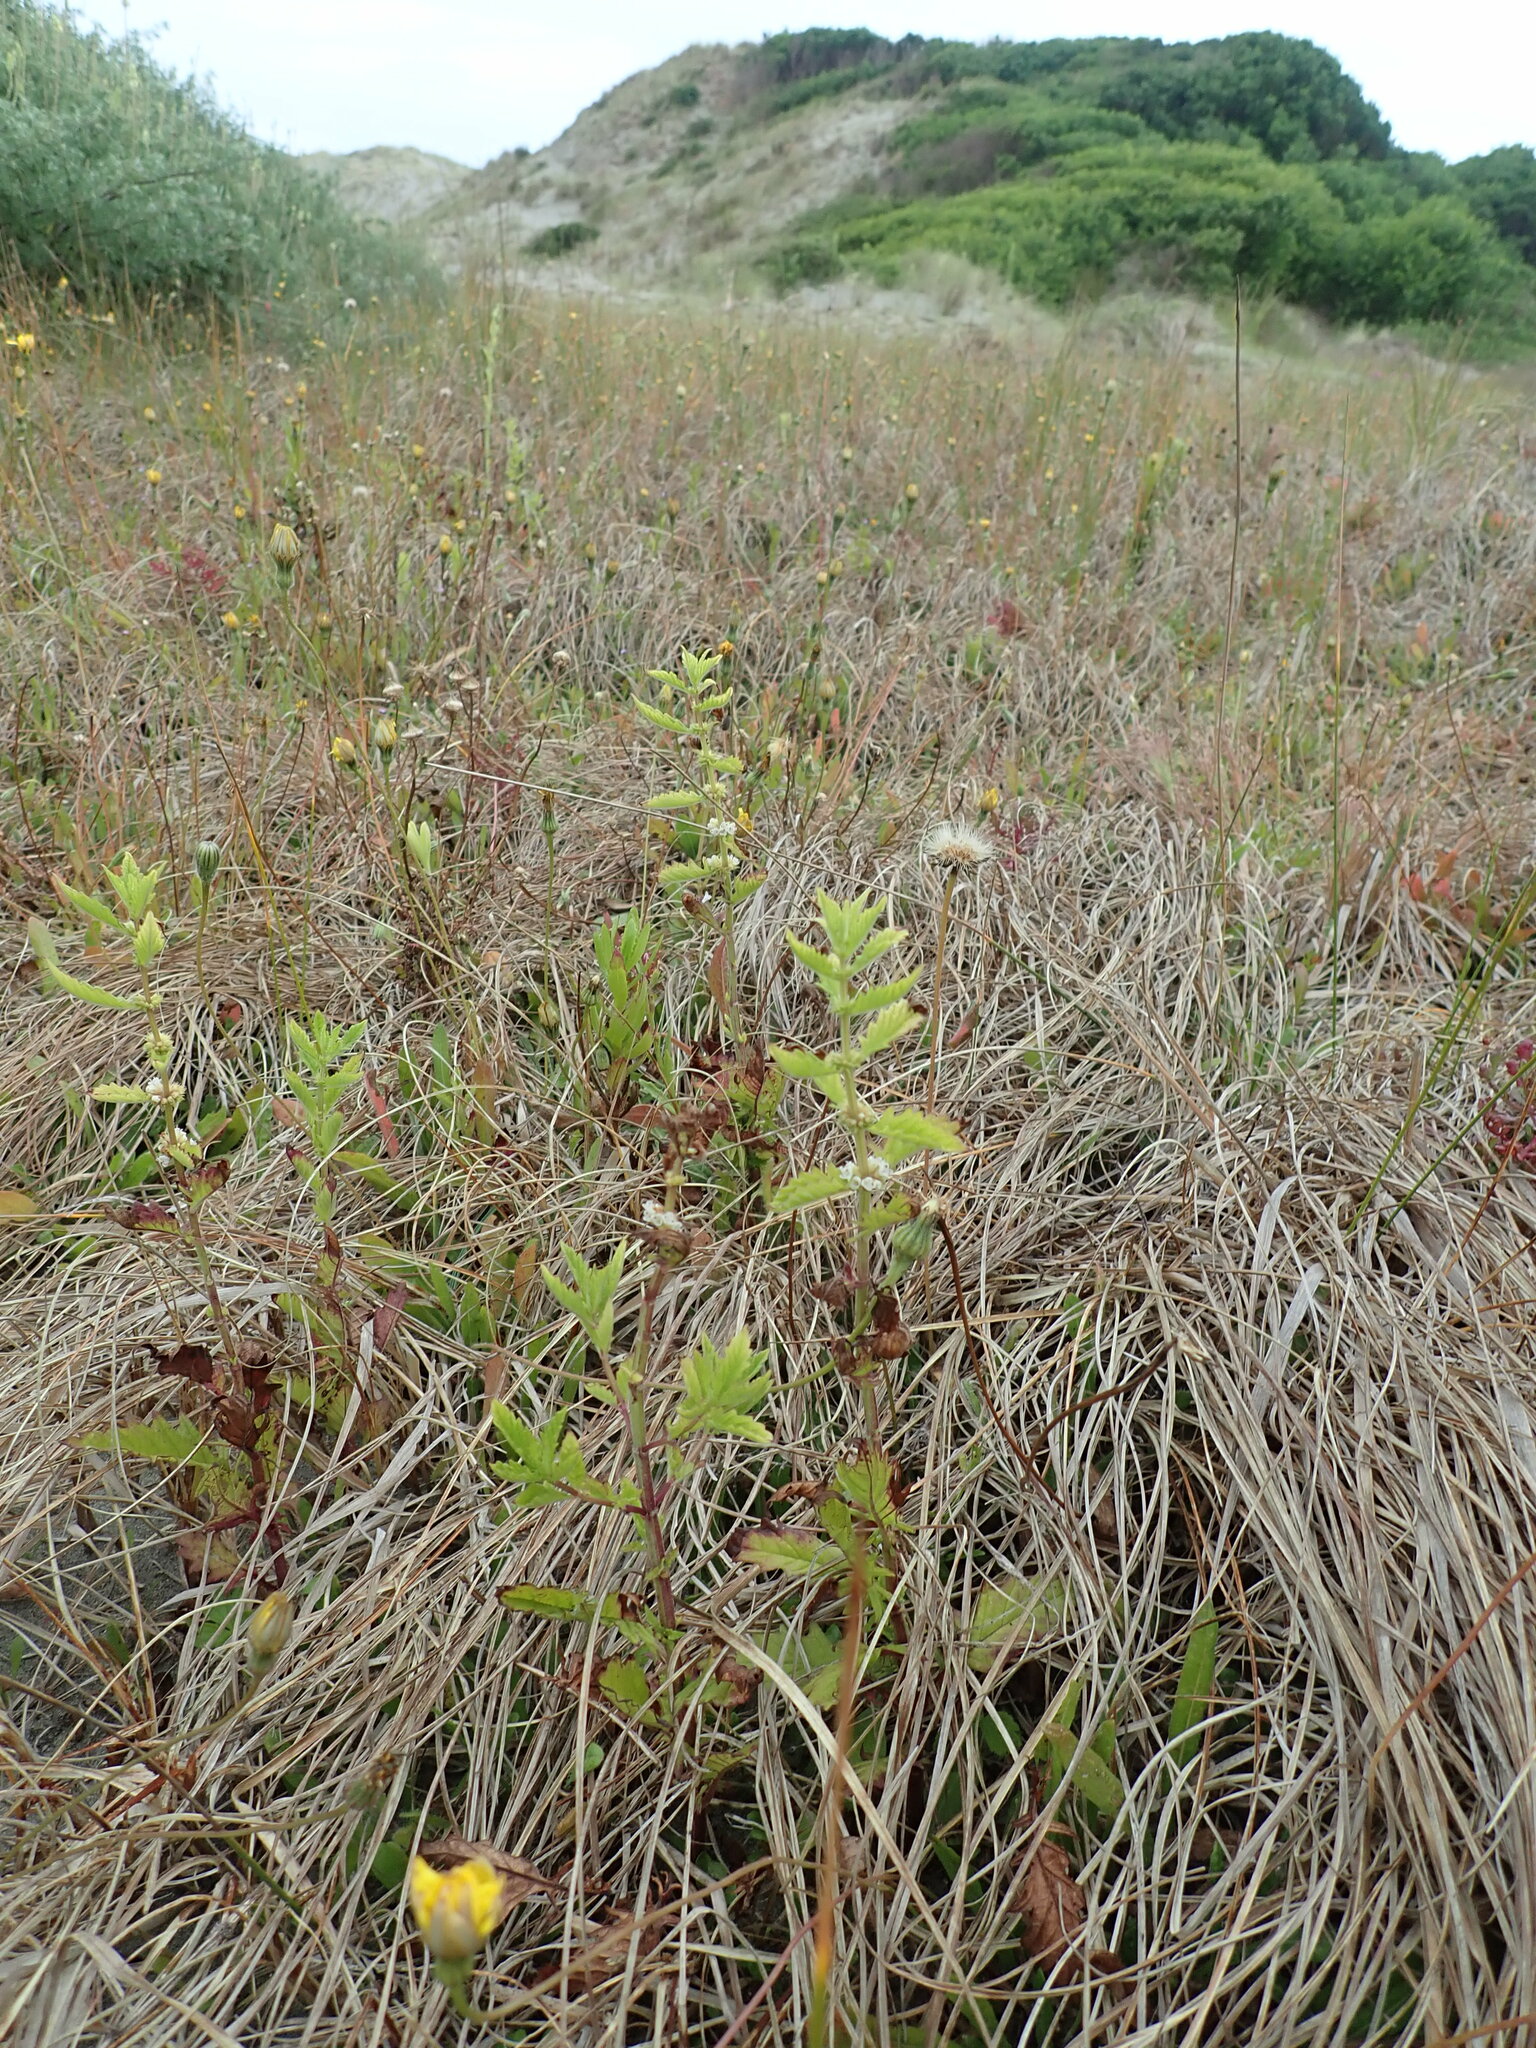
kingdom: Plantae
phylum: Tracheophyta
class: Magnoliopsida
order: Lamiales
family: Lamiaceae
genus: Lycopus
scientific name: Lycopus europaeus
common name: European bugleweed
